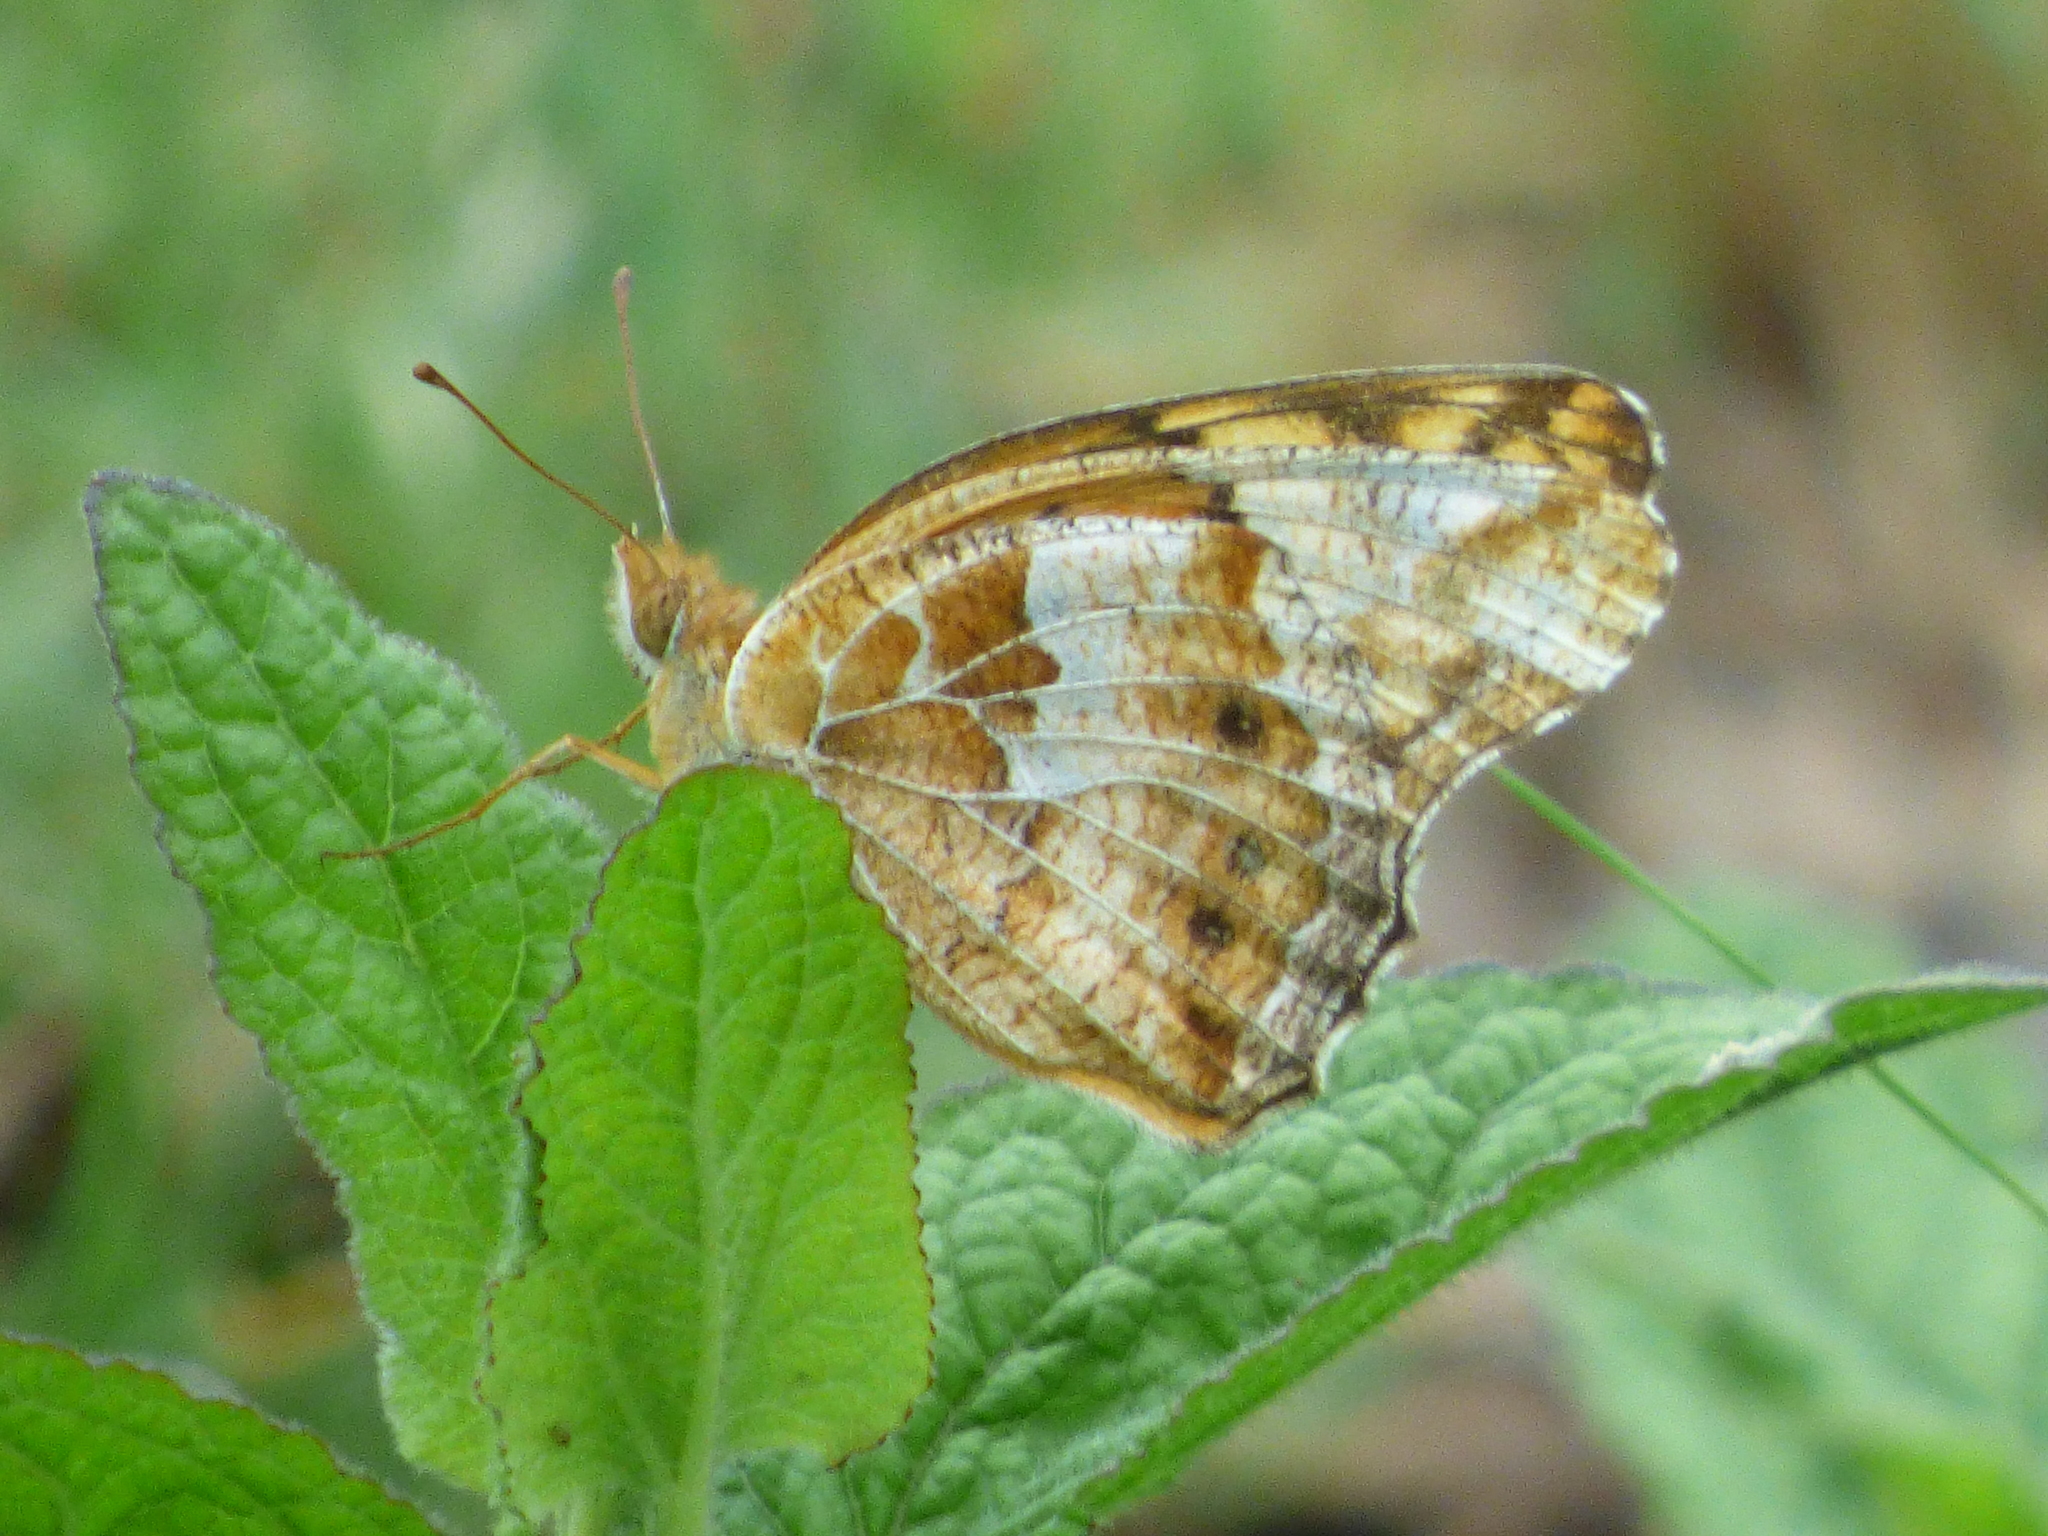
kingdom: Animalia
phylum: Arthropoda
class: Insecta
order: Lepidoptera
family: Nymphalidae
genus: Euptoieta
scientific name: Euptoieta claudia
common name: Variegated fritillary
